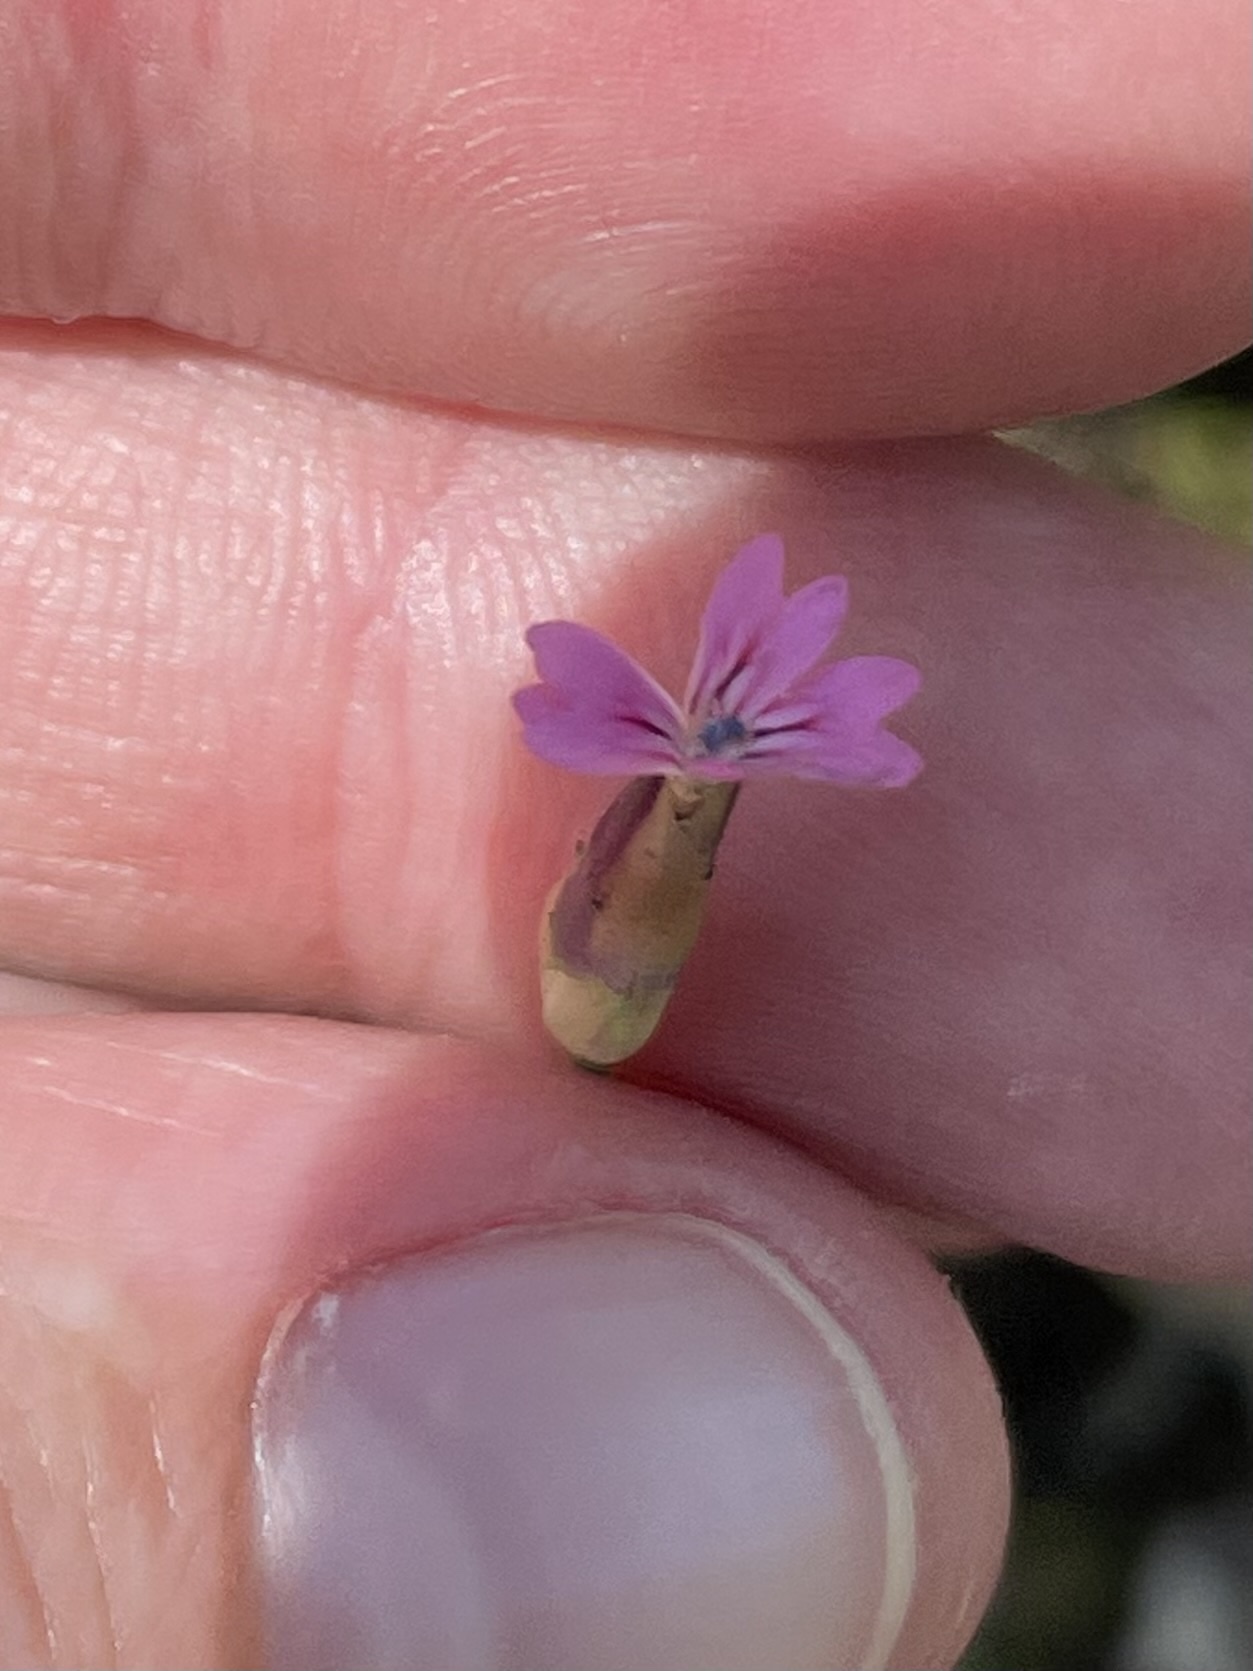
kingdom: Plantae
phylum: Tracheophyta
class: Magnoliopsida
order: Caryophyllales
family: Caryophyllaceae
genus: Petrorhagia
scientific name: Petrorhagia dubia
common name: Hairypink
